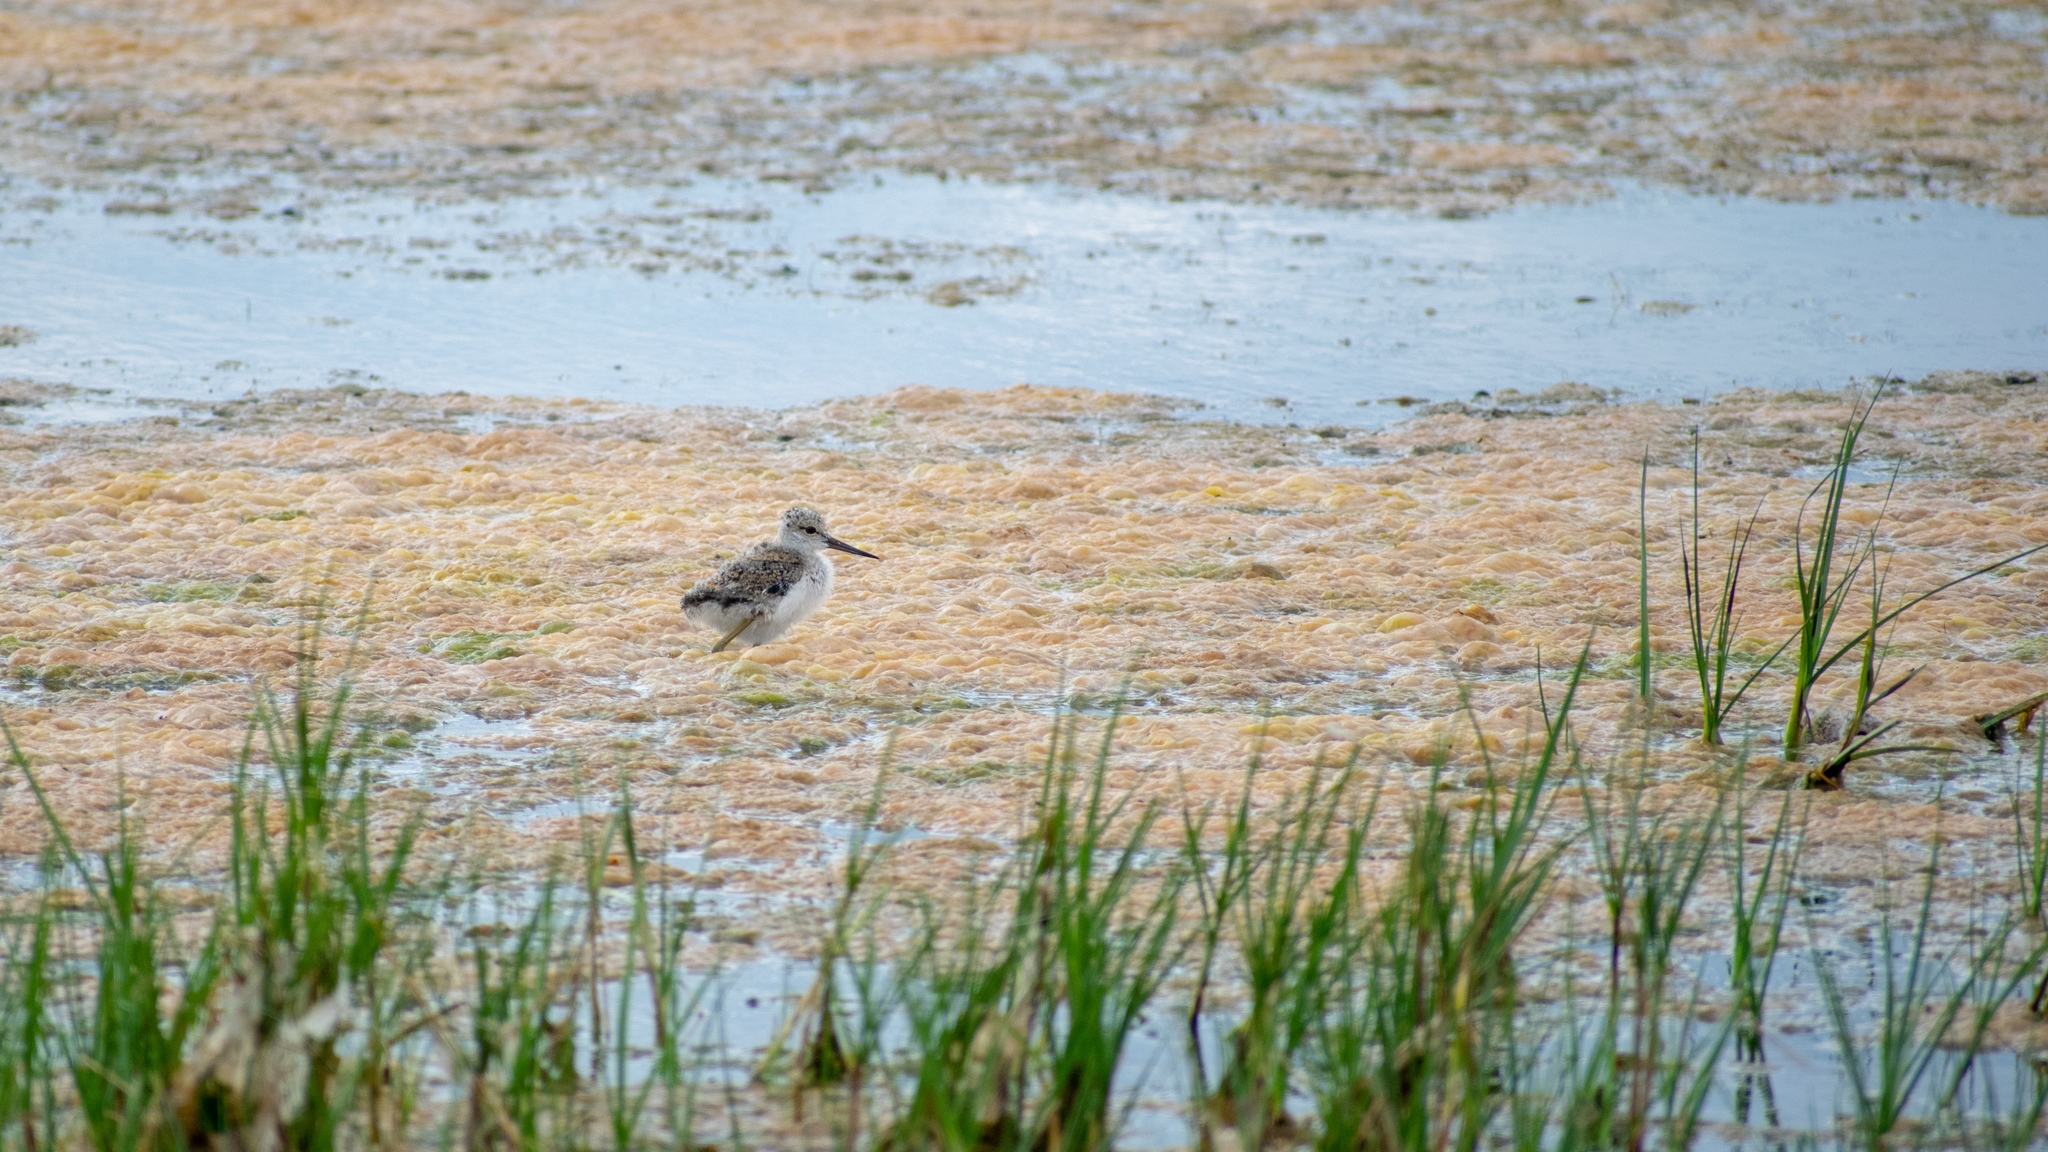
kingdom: Animalia
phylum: Chordata
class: Aves
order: Charadriiformes
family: Recurvirostridae
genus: Himantopus
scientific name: Himantopus himantopus
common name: Black-winged stilt
